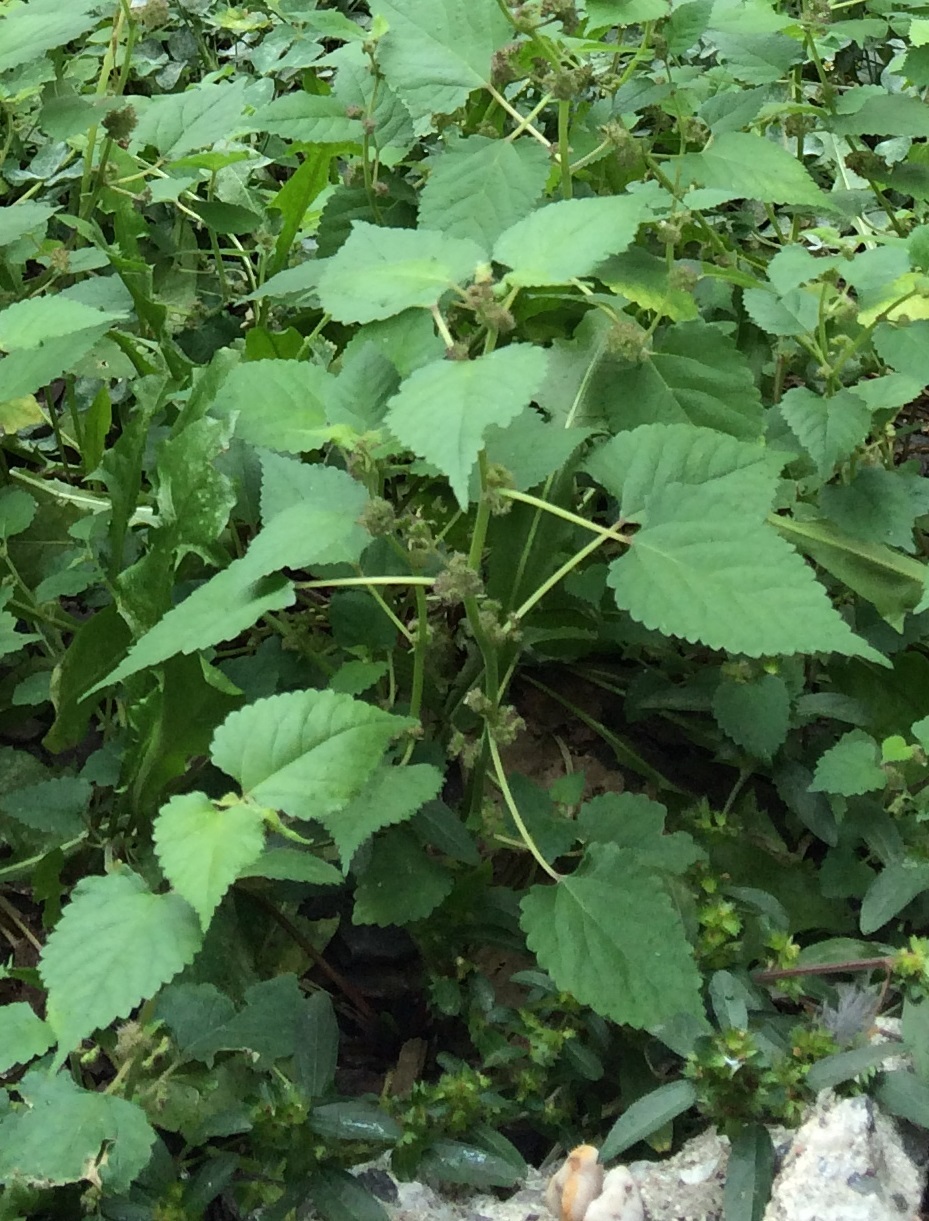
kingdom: Plantae
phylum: Tracheophyta
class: Magnoliopsida
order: Rosales
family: Moraceae
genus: Fatoua
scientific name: Fatoua villosa
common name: Hairy crabweed
